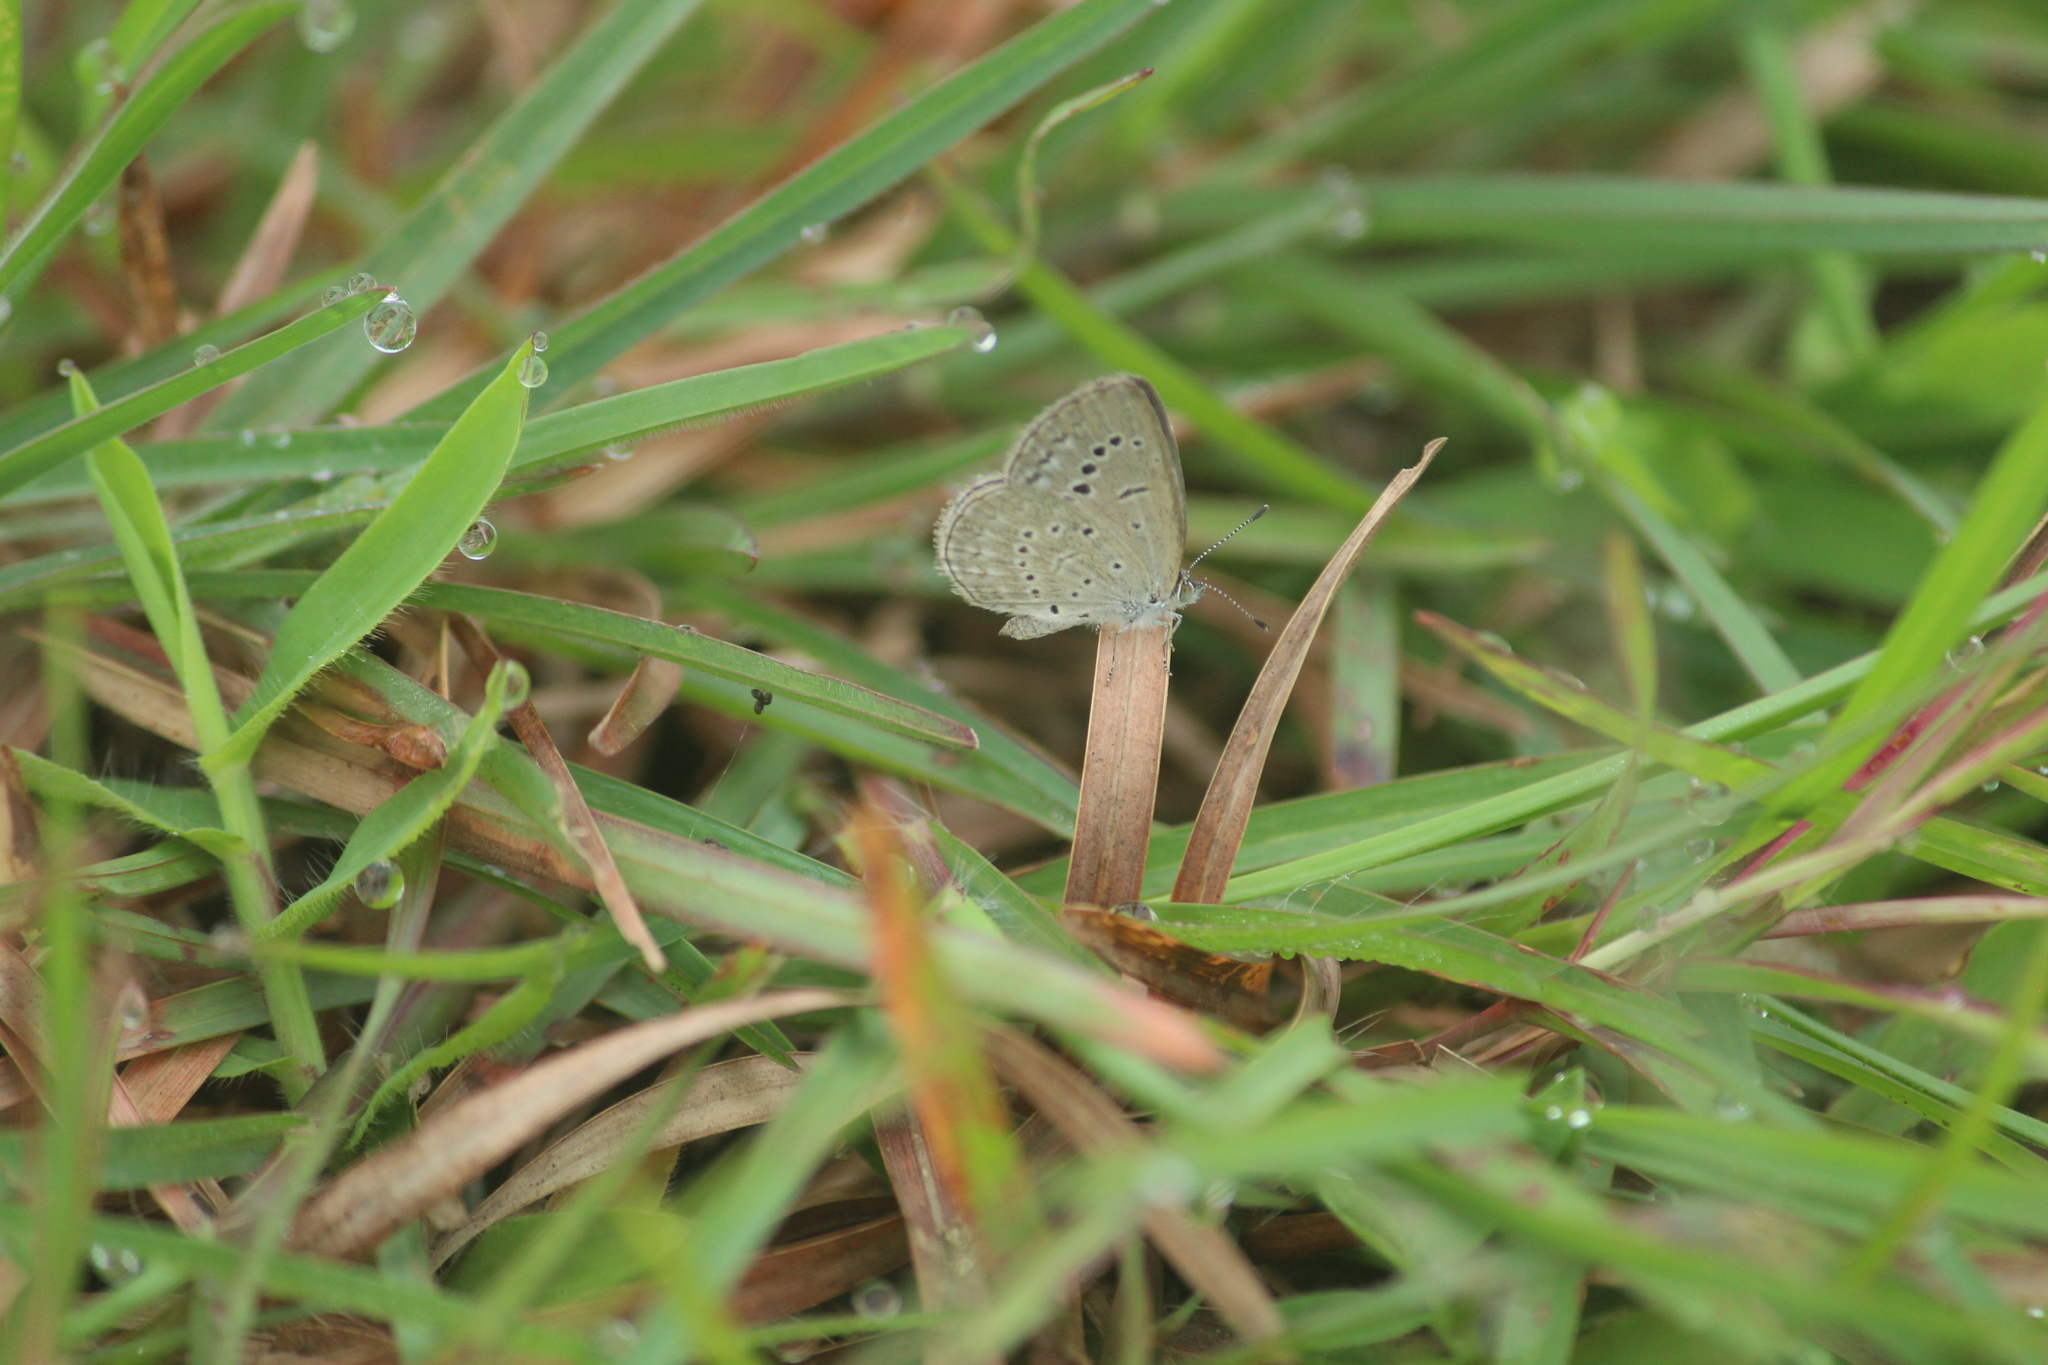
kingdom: Animalia
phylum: Arthropoda
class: Insecta
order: Lepidoptera
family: Lycaenidae
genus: Pseudozizeeria
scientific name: Pseudozizeeria maha
